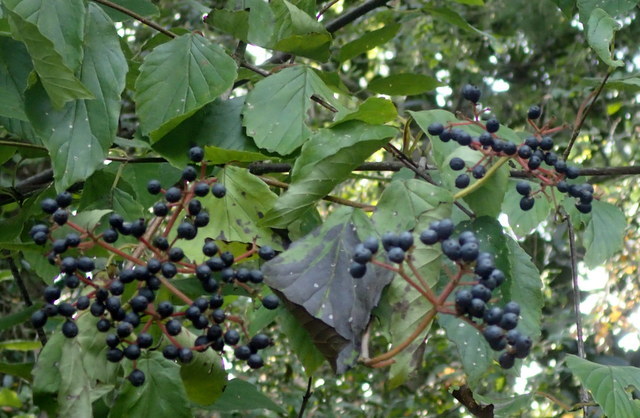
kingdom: Plantae
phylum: Tracheophyta
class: Magnoliopsida
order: Dipsacales
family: Viburnaceae
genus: Viburnum
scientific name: Viburnum scabrellum
